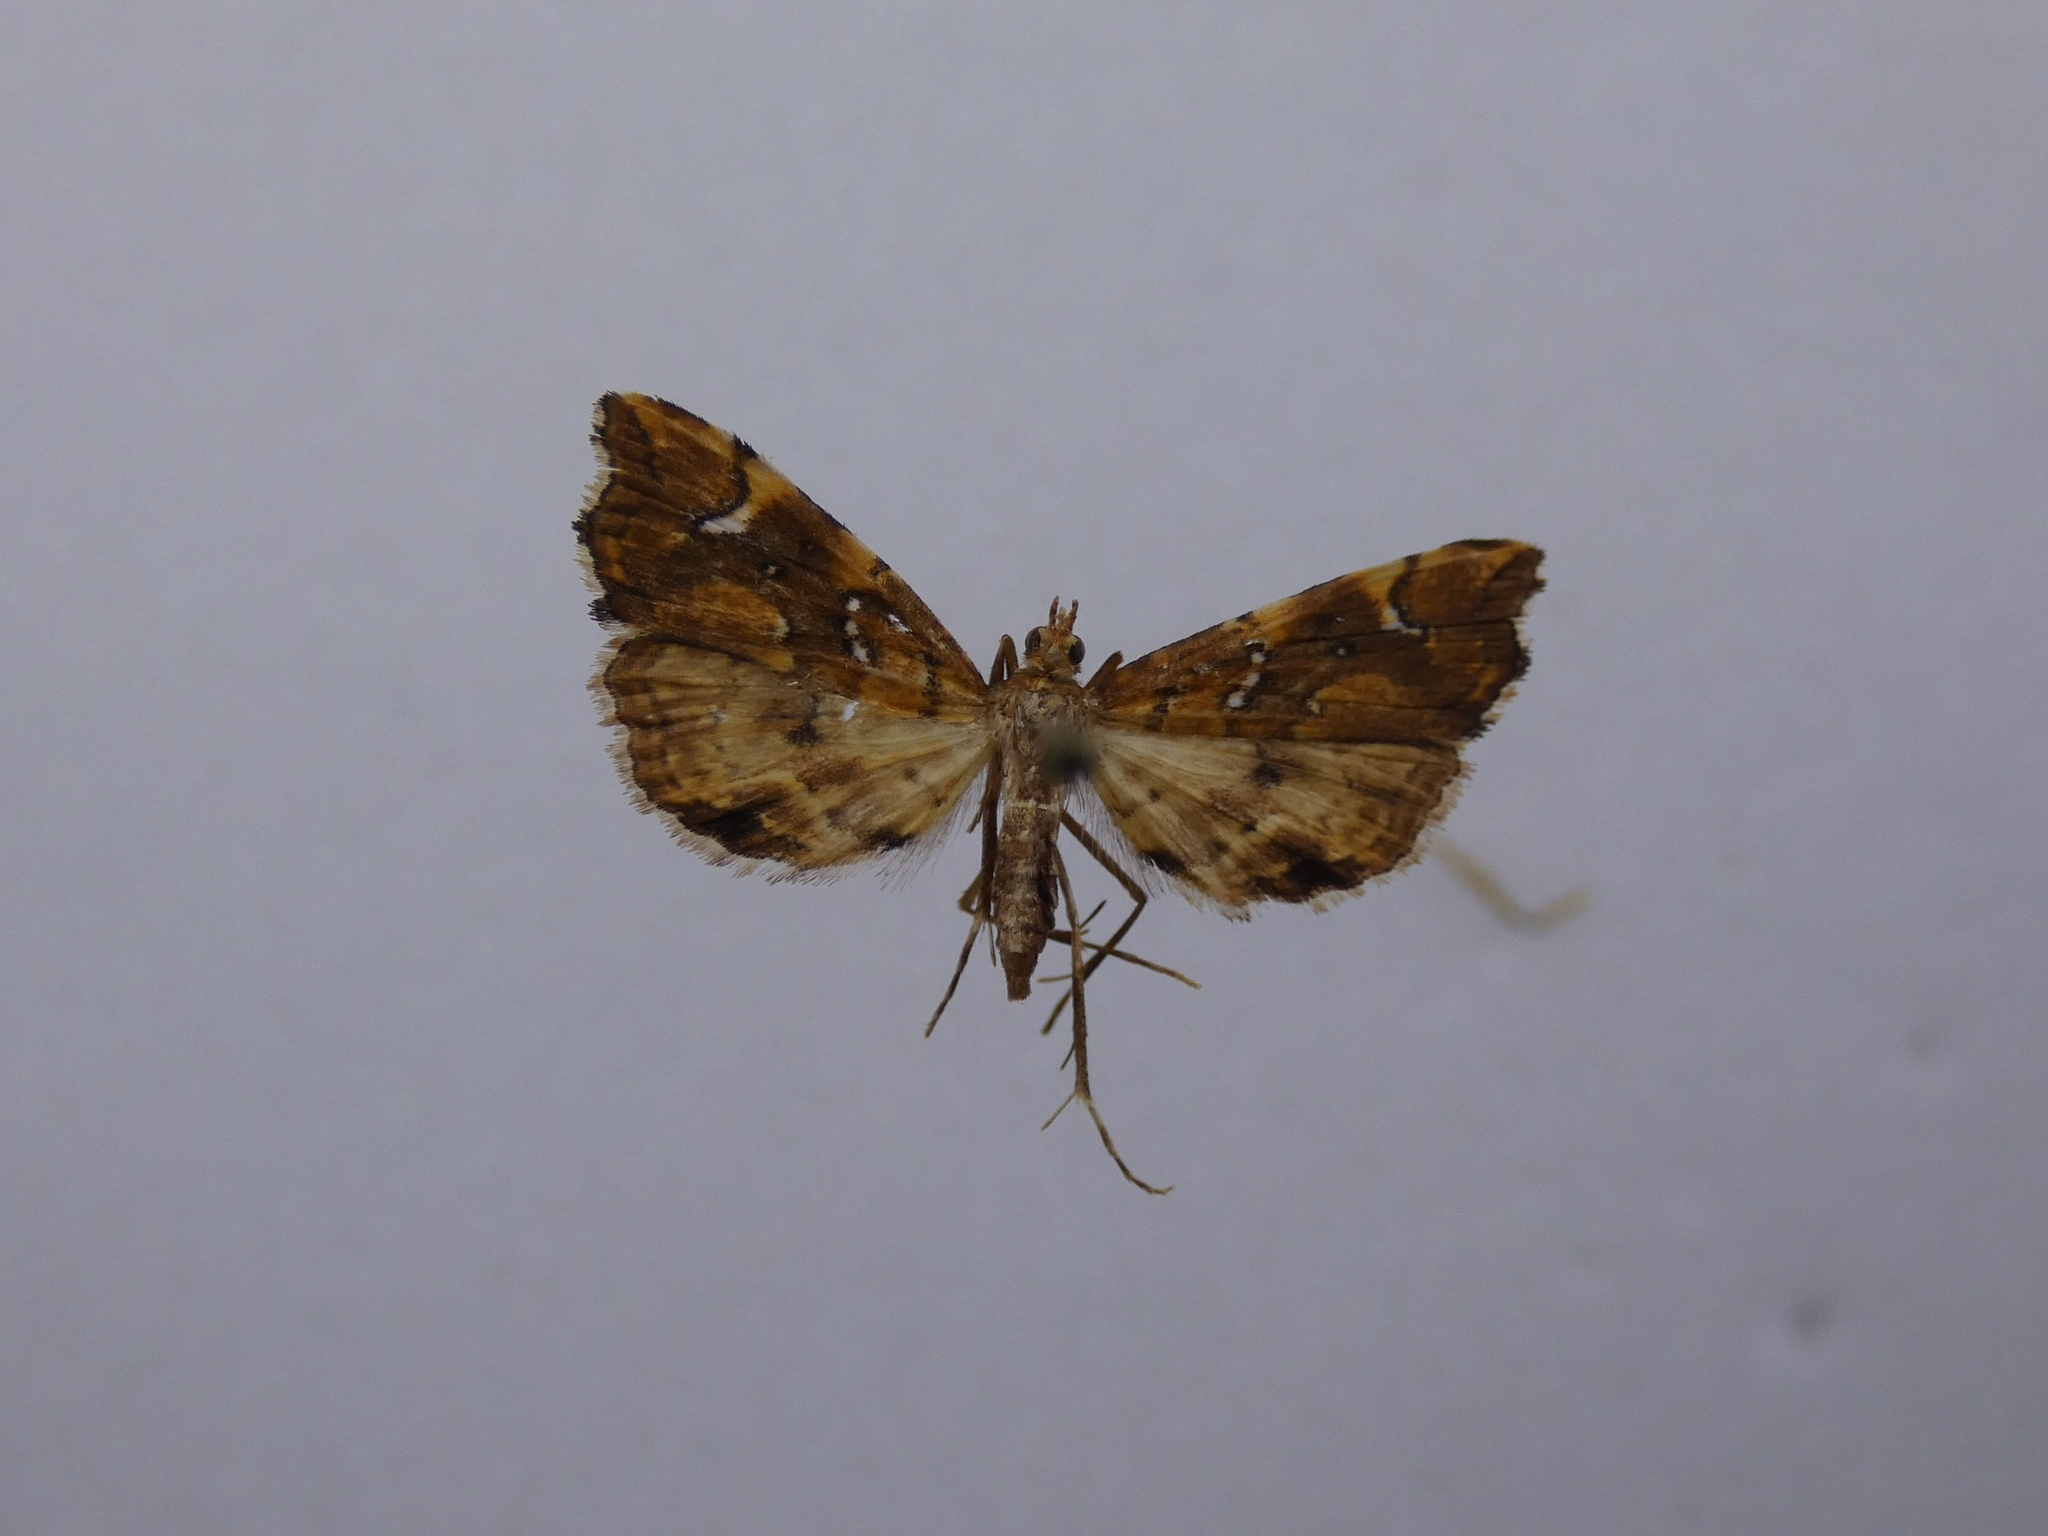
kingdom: Animalia
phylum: Arthropoda
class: Insecta
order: Lepidoptera
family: Pyralidae
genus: Musotima
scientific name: Musotima nitidalis
